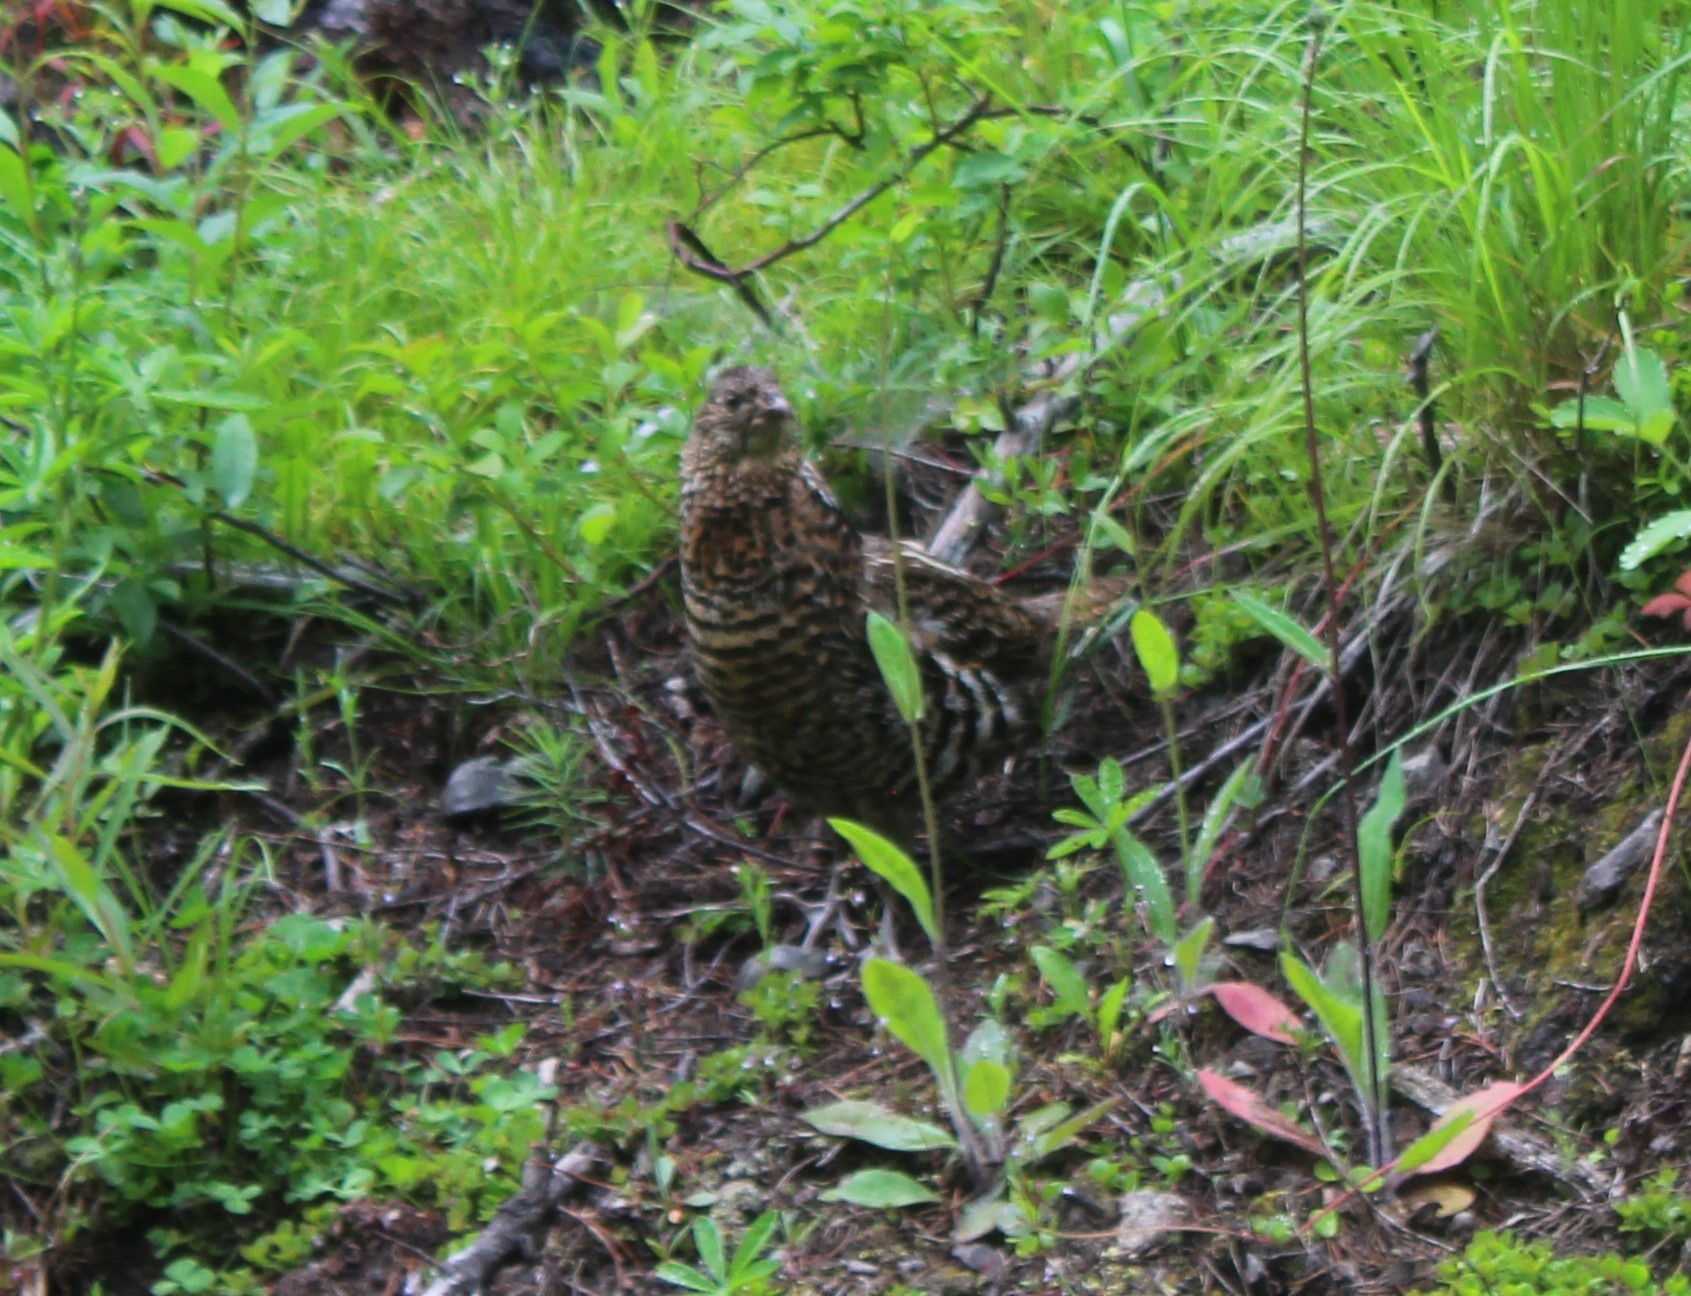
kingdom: Animalia
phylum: Chordata
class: Aves
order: Galliformes
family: Phasianidae
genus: Bonasa
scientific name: Bonasa umbellus
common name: Ruffed grouse
